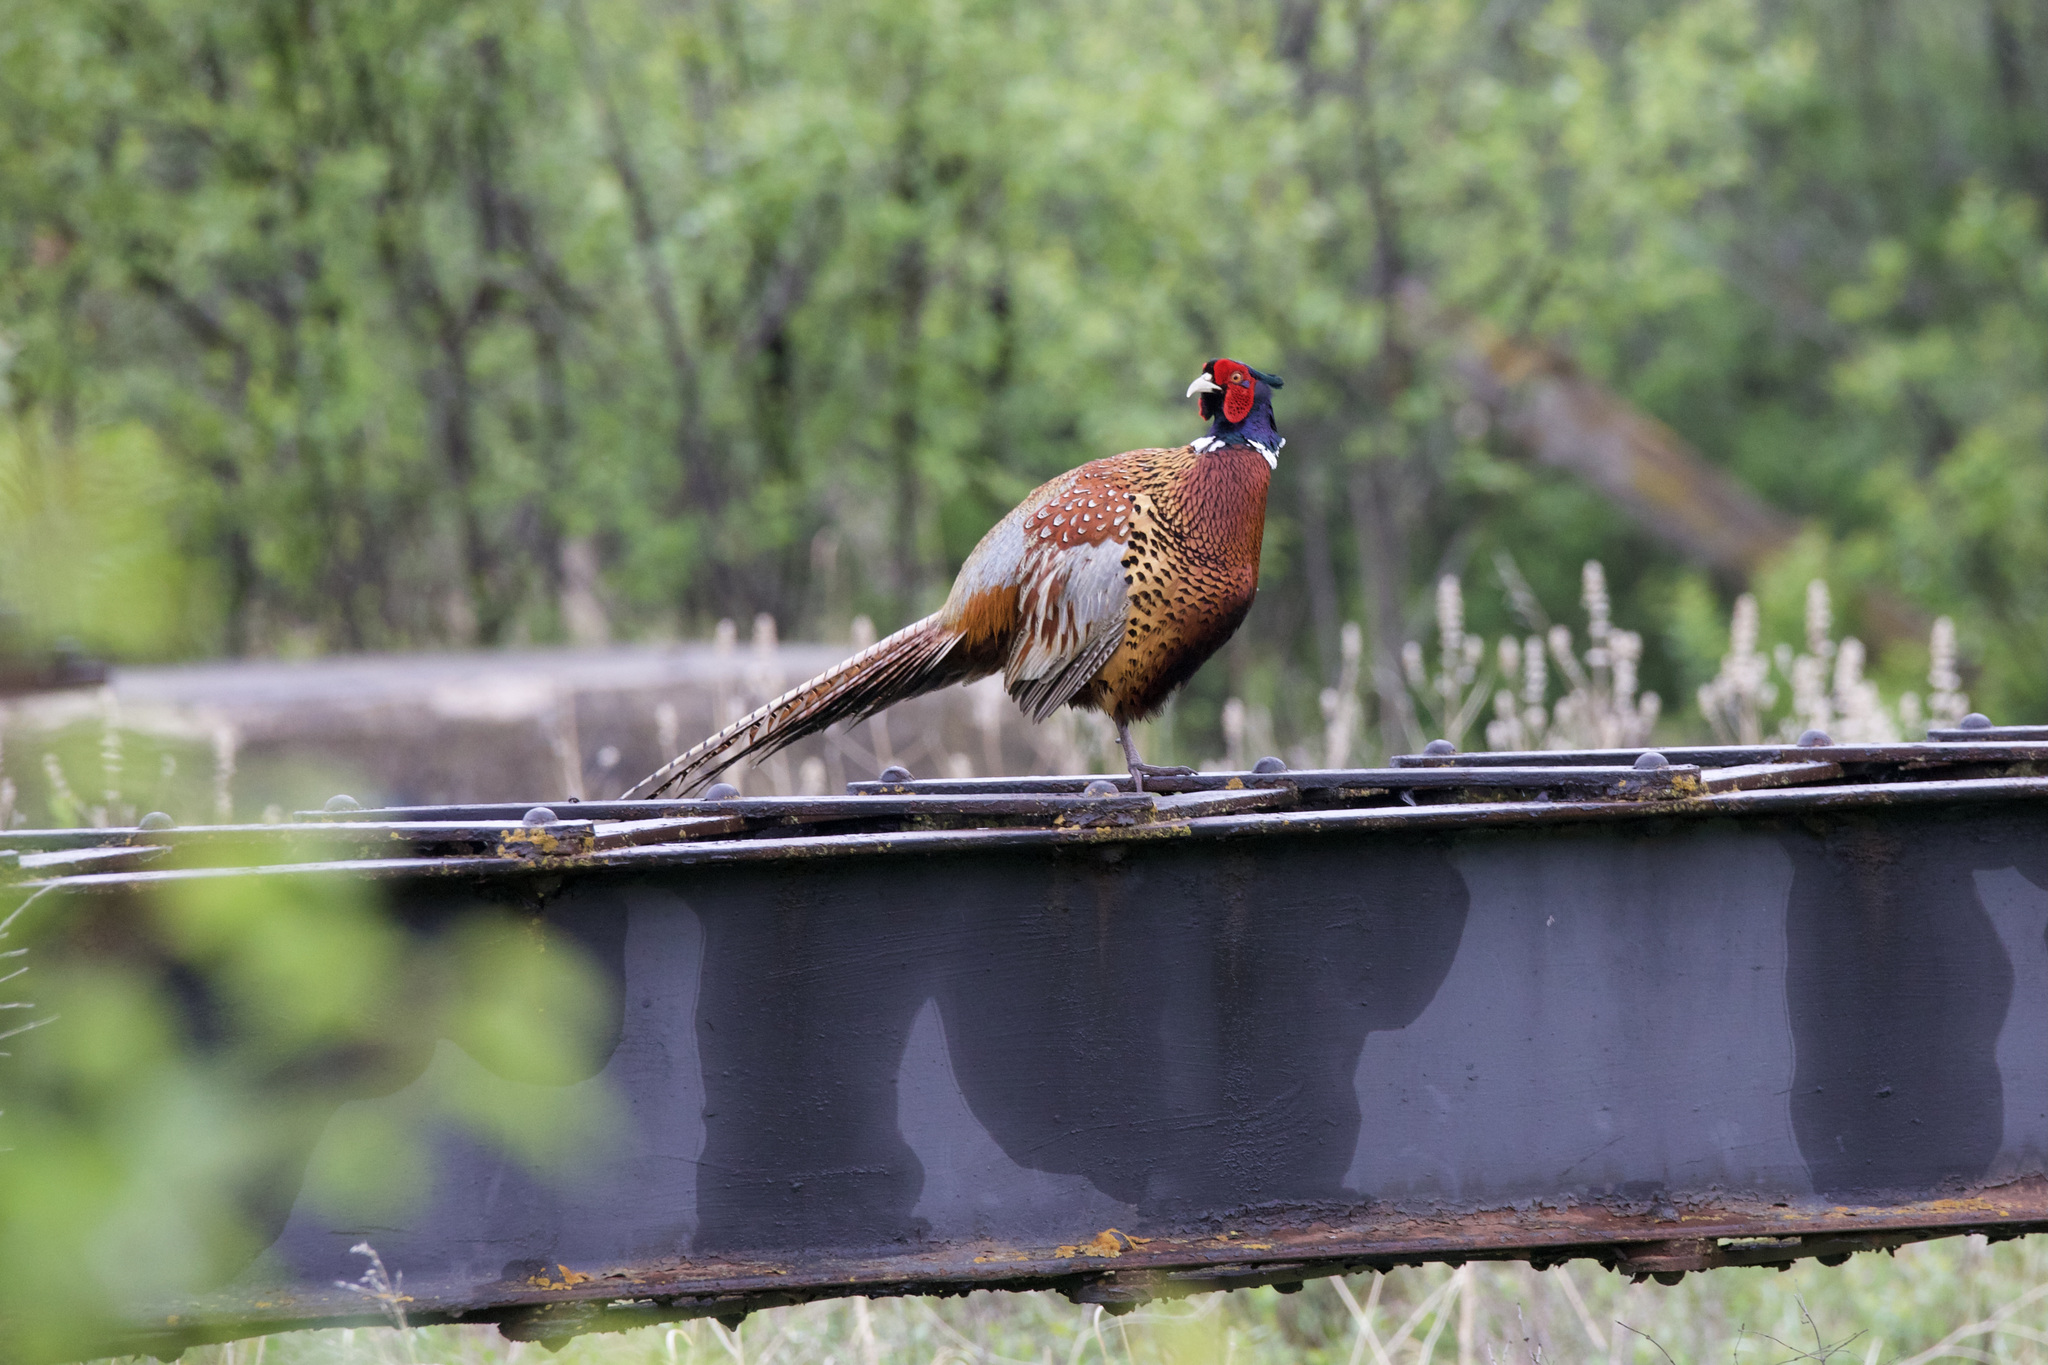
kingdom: Animalia
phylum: Chordata
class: Aves
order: Galliformes
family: Phasianidae
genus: Phasianus
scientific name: Phasianus colchicus
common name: Common pheasant
